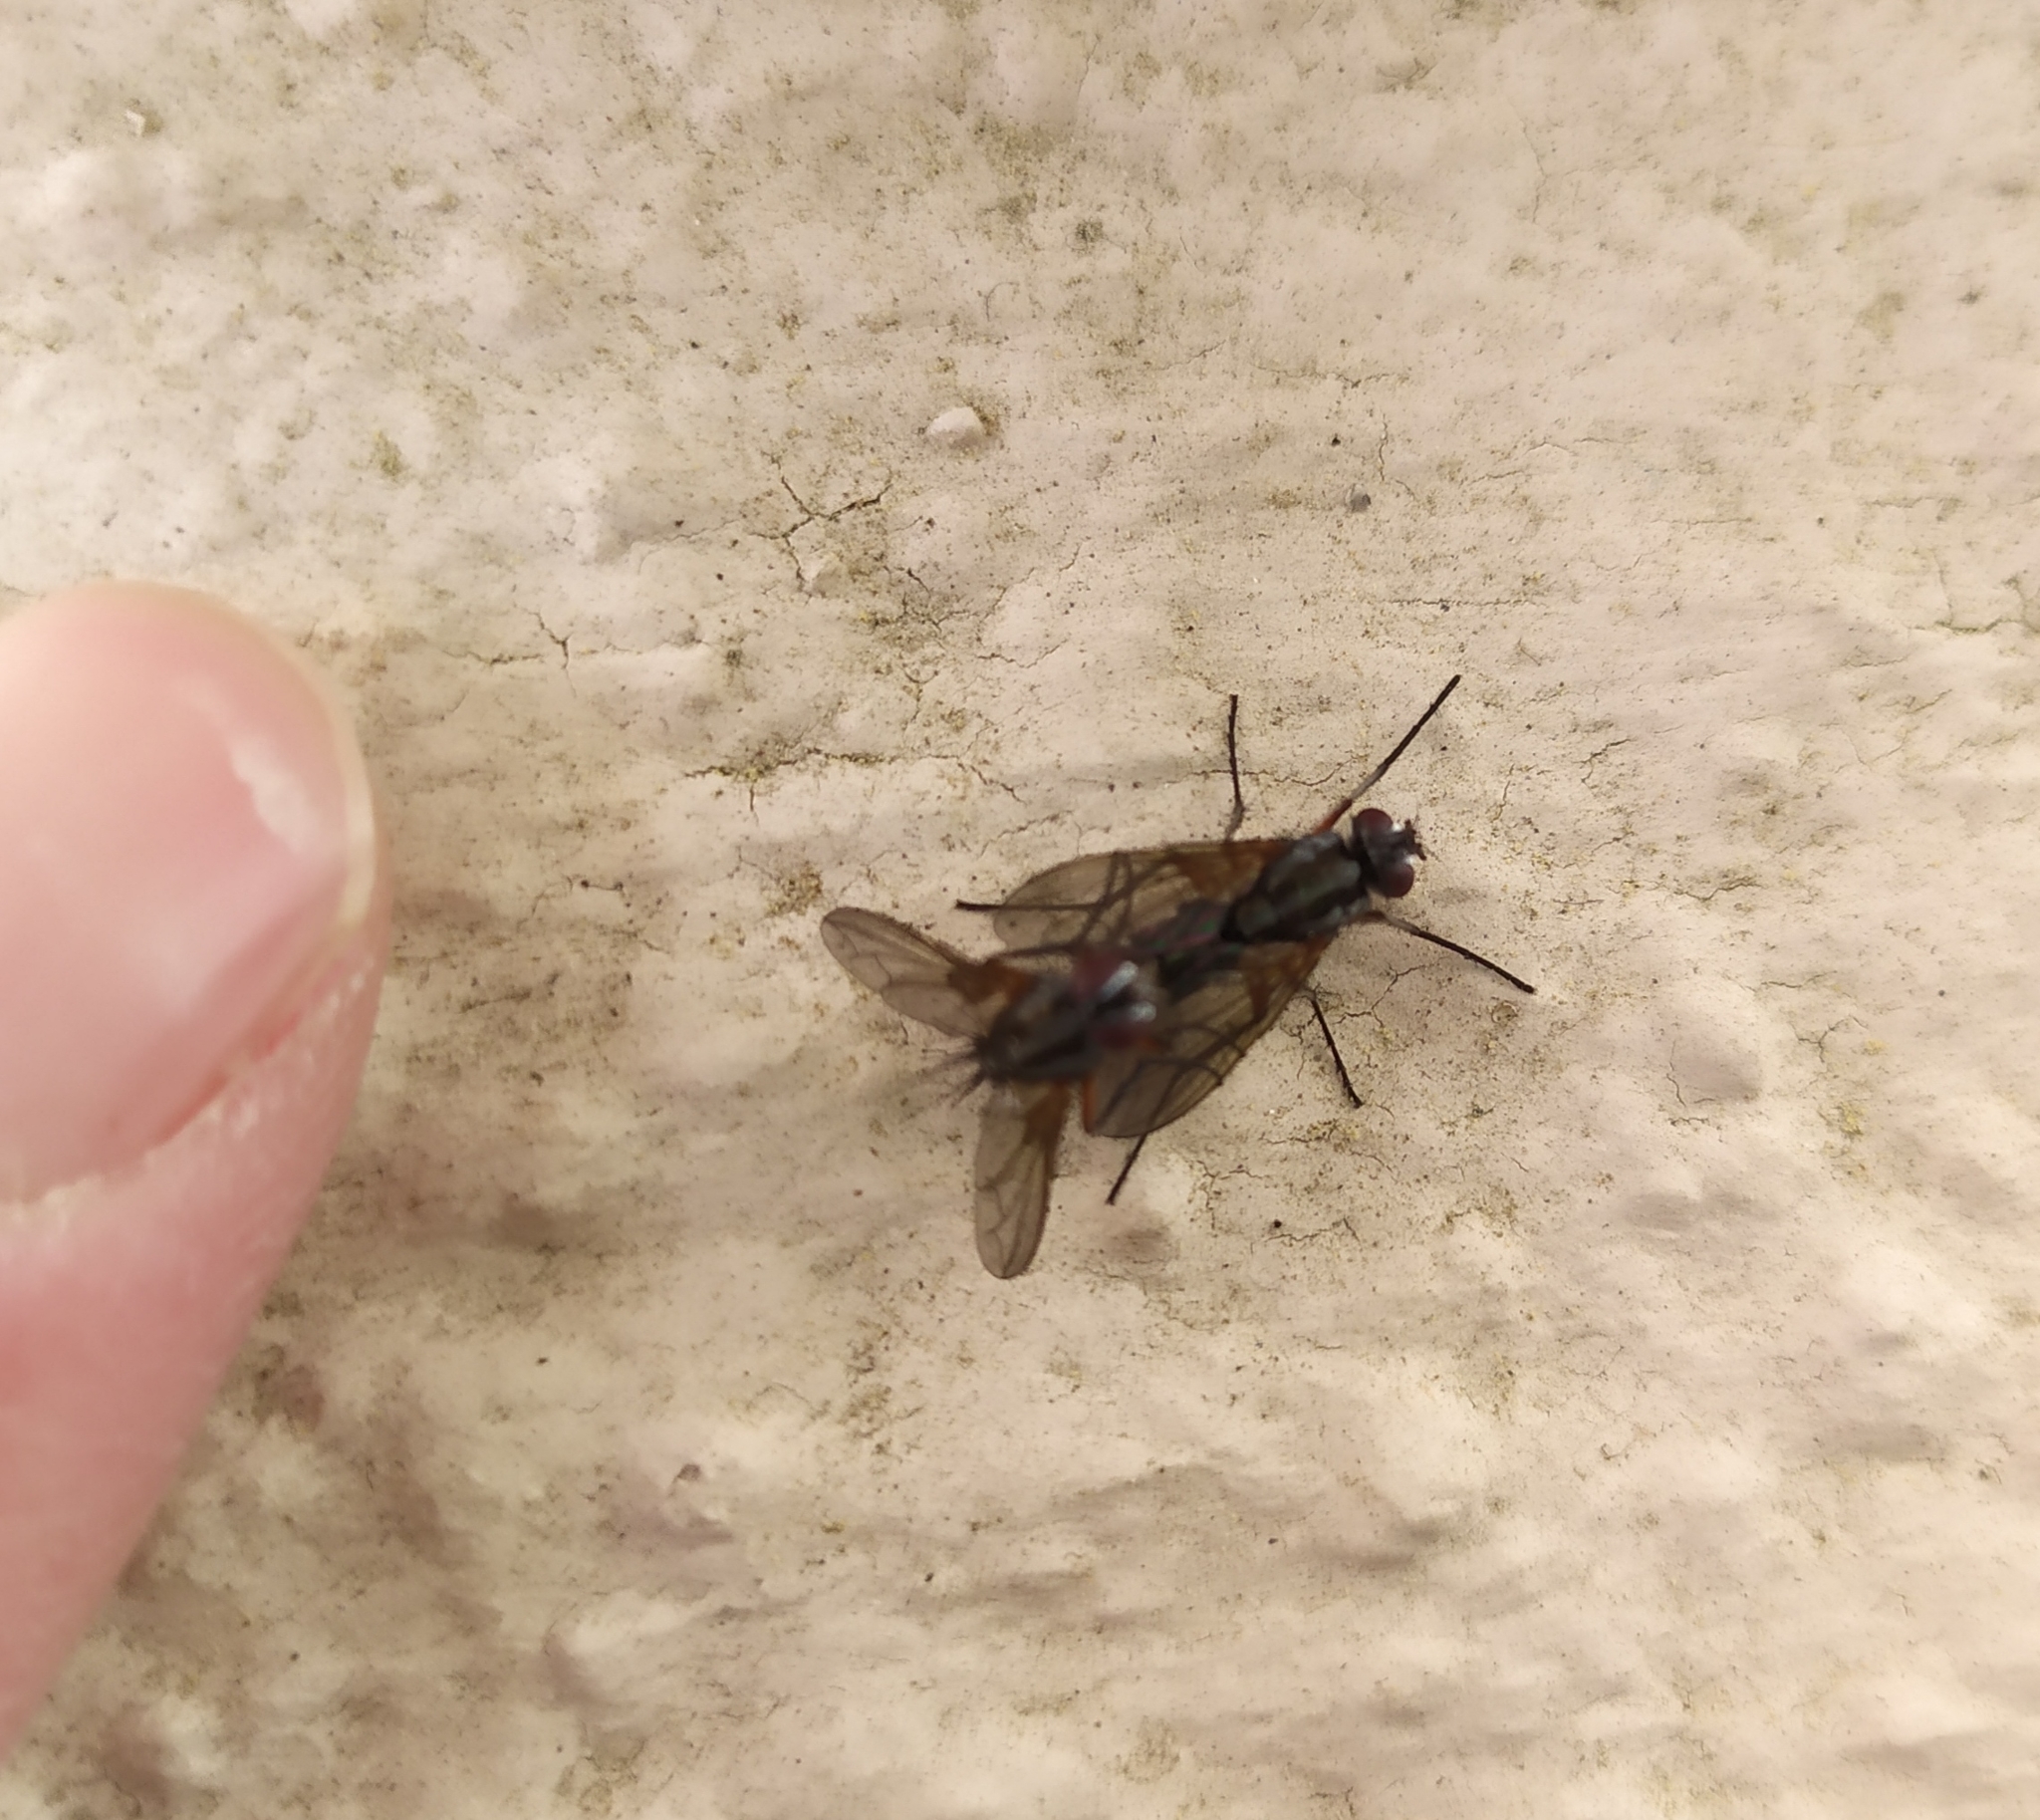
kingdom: Animalia
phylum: Arthropoda
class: Insecta
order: Diptera
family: Tachinidae
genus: Mintho
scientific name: Mintho rufiventris
